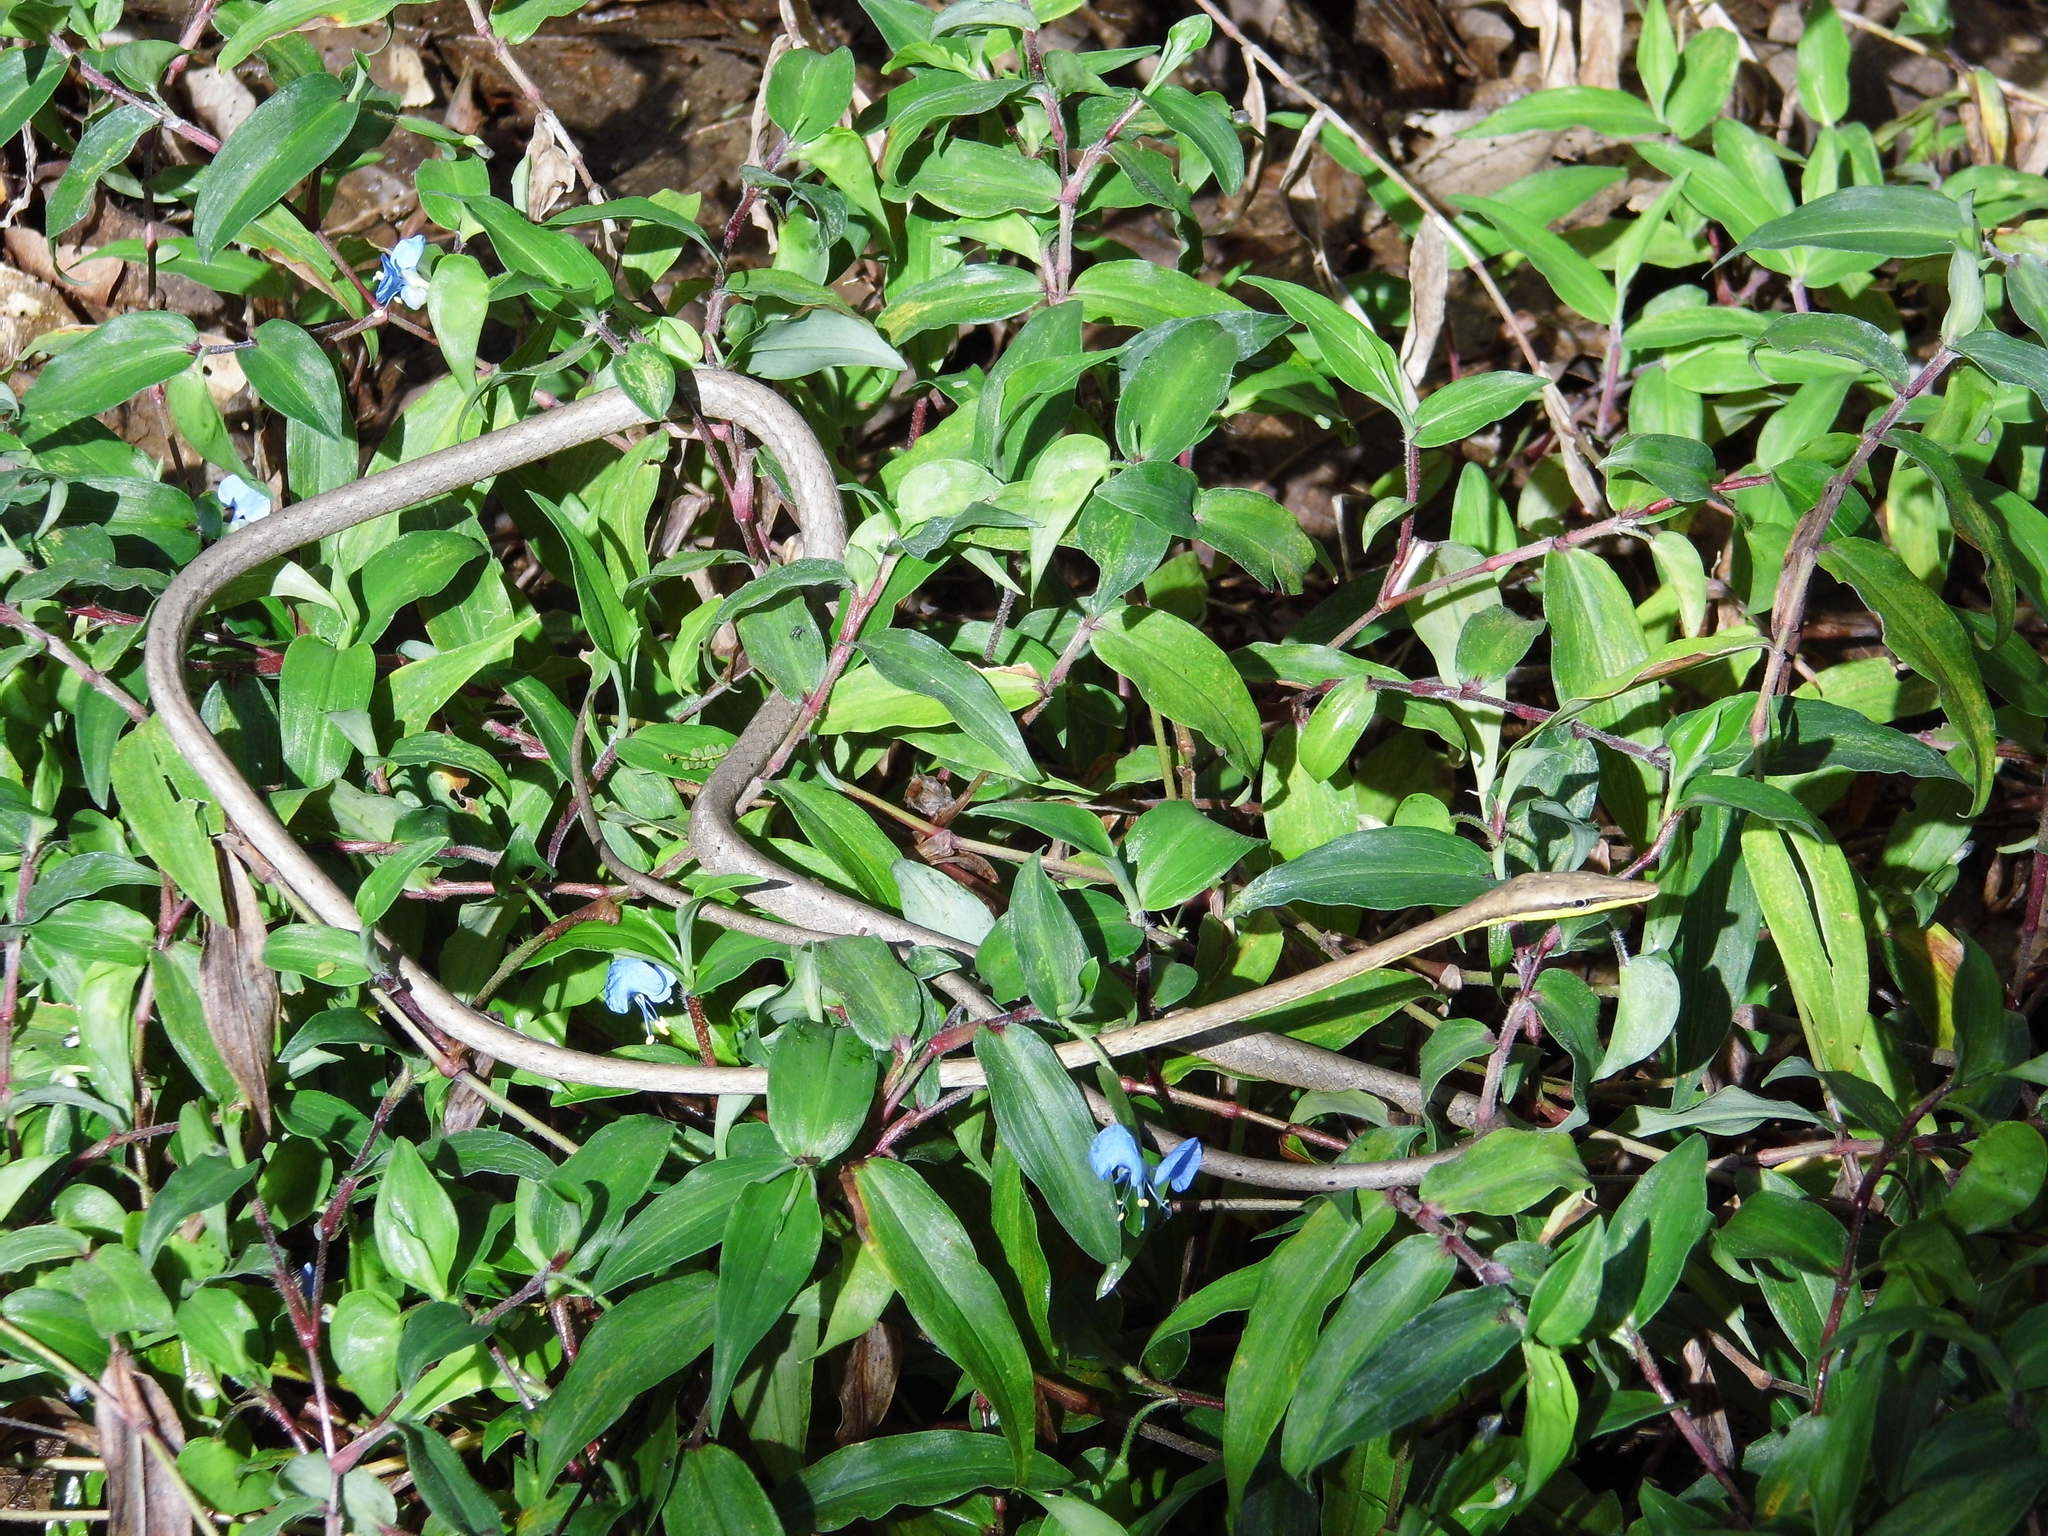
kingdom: Animalia
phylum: Chordata
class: Squamata
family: Colubridae
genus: Oxybelis
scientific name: Oxybelis microphthalmus
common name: Thrornscrub vine snake
